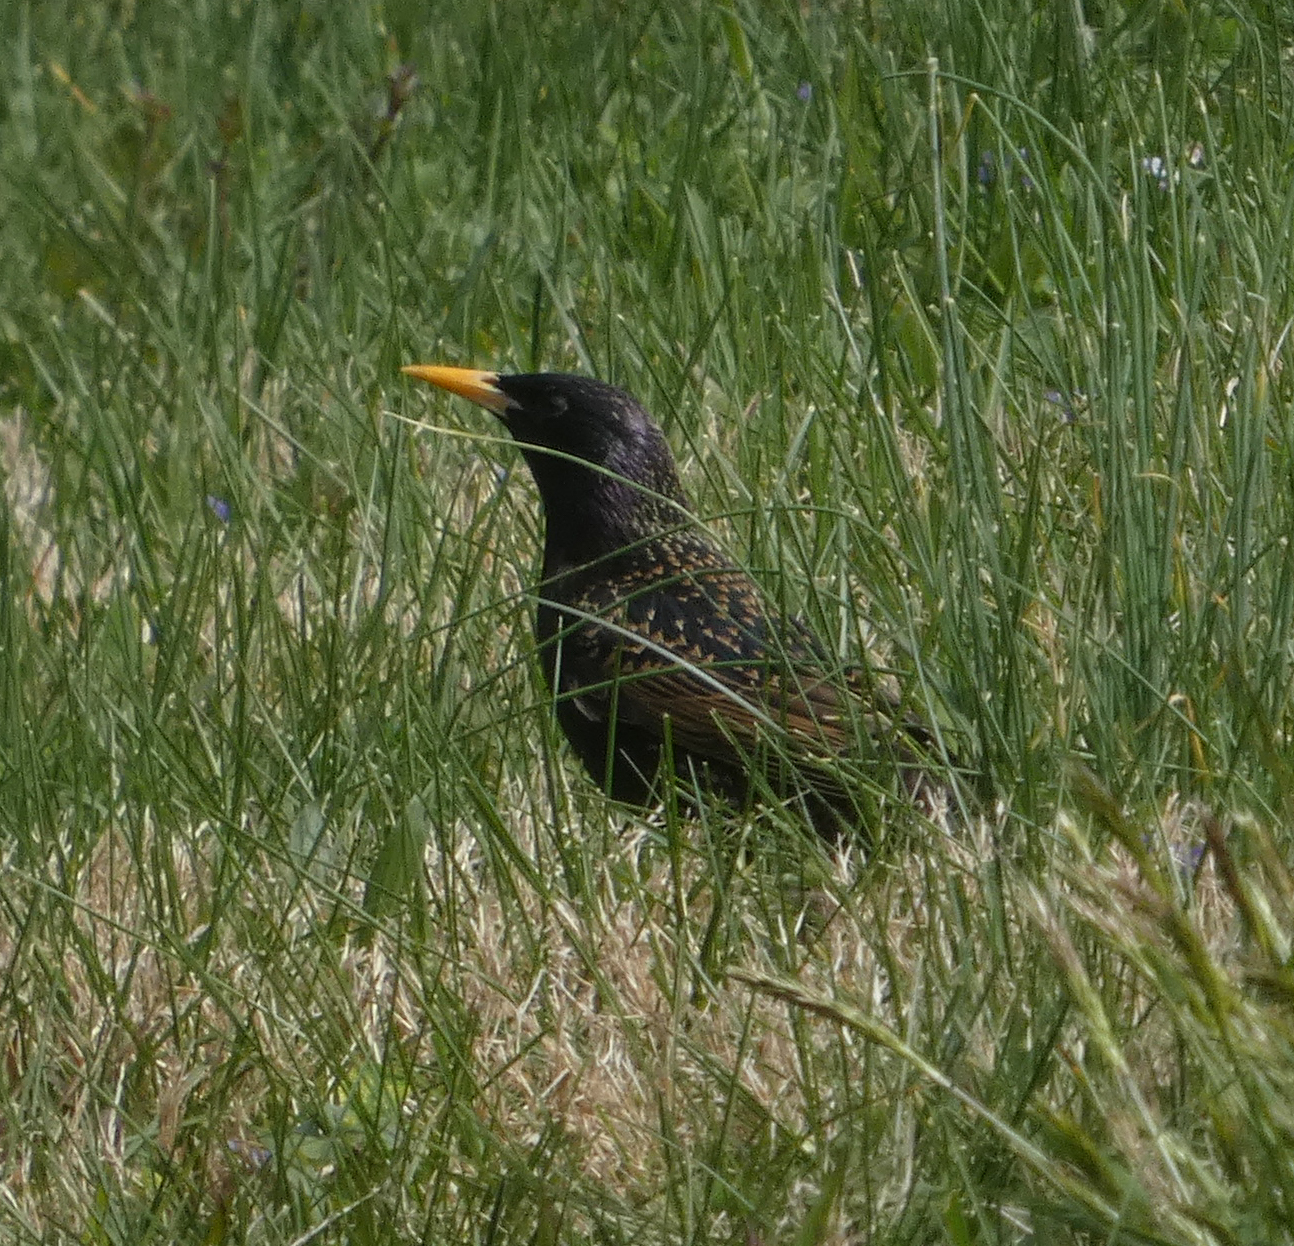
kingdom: Animalia
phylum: Chordata
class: Aves
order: Passeriformes
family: Sturnidae
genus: Sturnus
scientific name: Sturnus vulgaris
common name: Common starling
